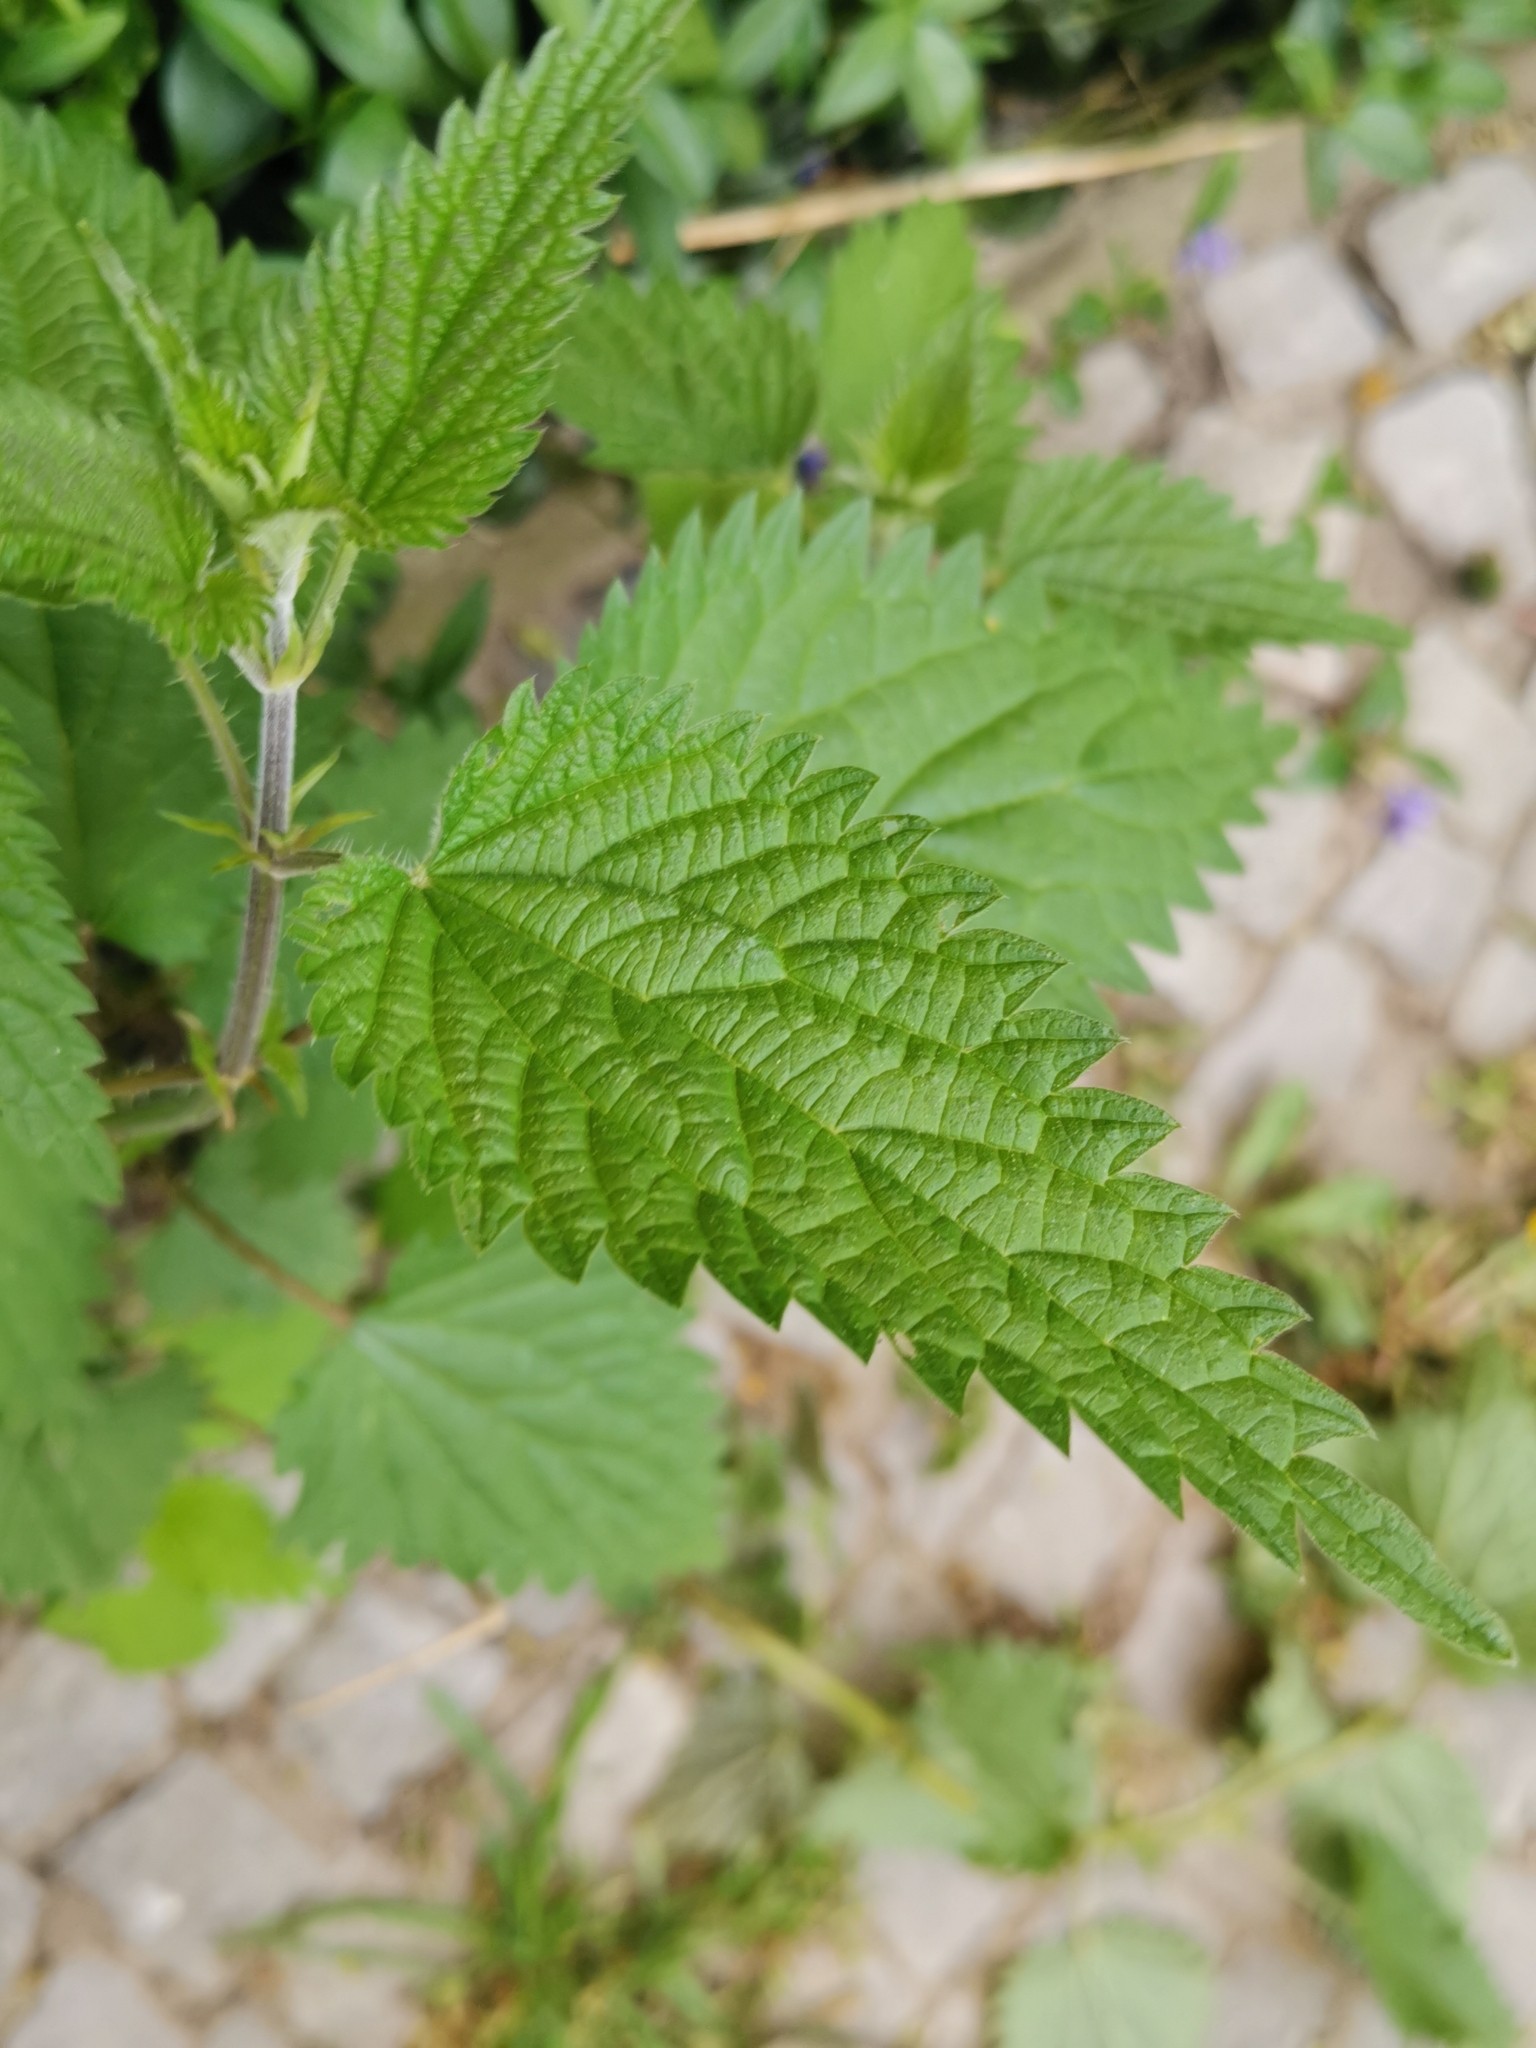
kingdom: Plantae
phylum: Tracheophyta
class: Magnoliopsida
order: Rosales
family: Urticaceae
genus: Urtica
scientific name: Urtica dioica
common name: Common nettle
